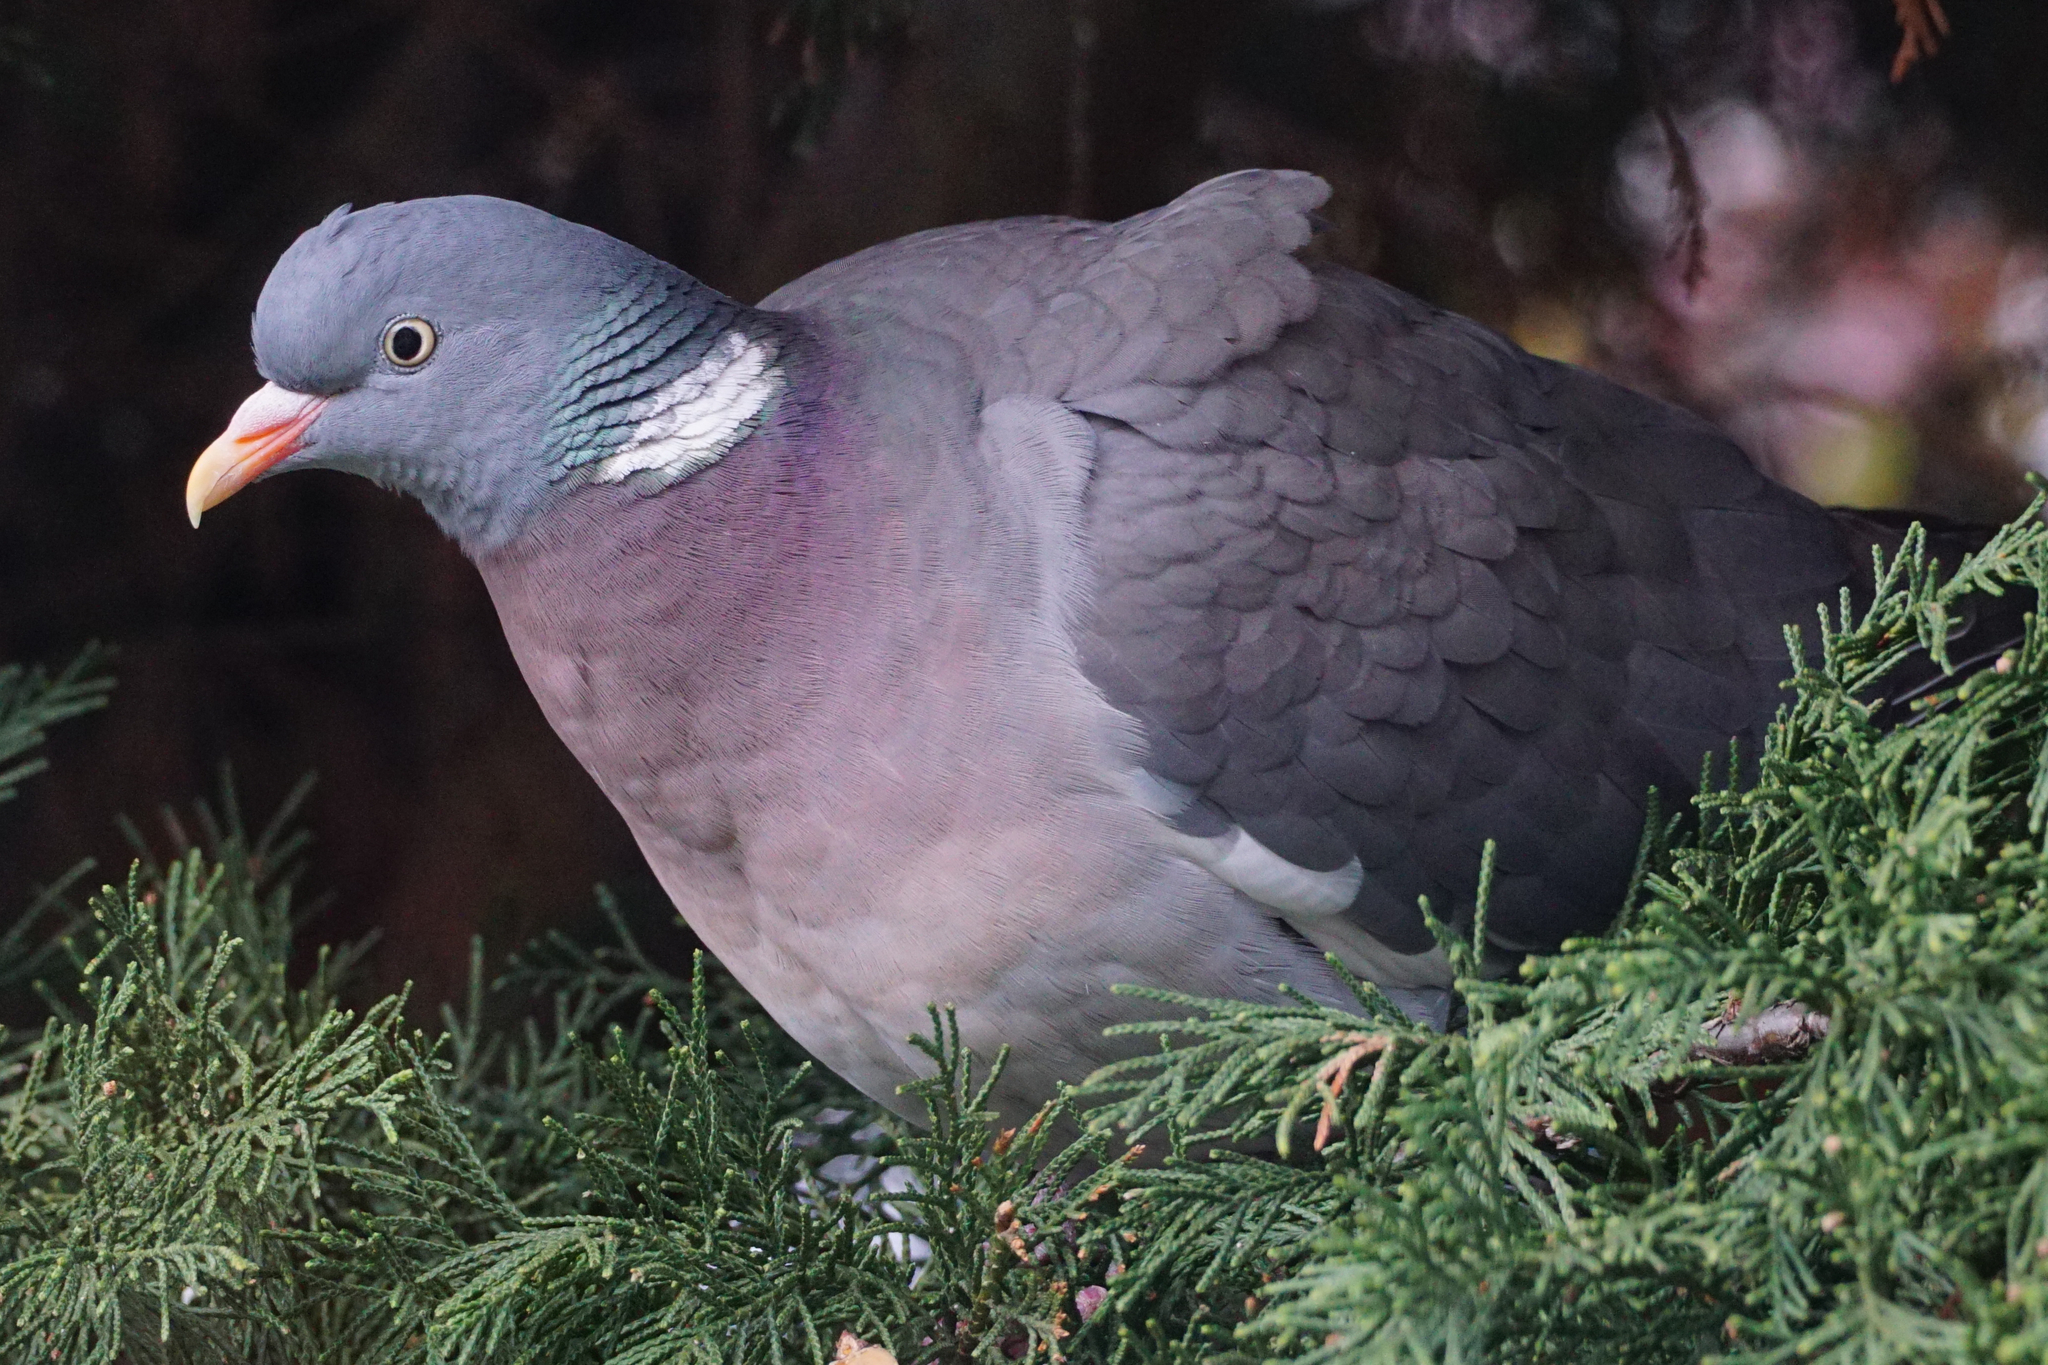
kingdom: Animalia
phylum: Chordata
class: Aves
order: Columbiformes
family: Columbidae
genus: Columba
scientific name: Columba palumbus
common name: Common wood pigeon
